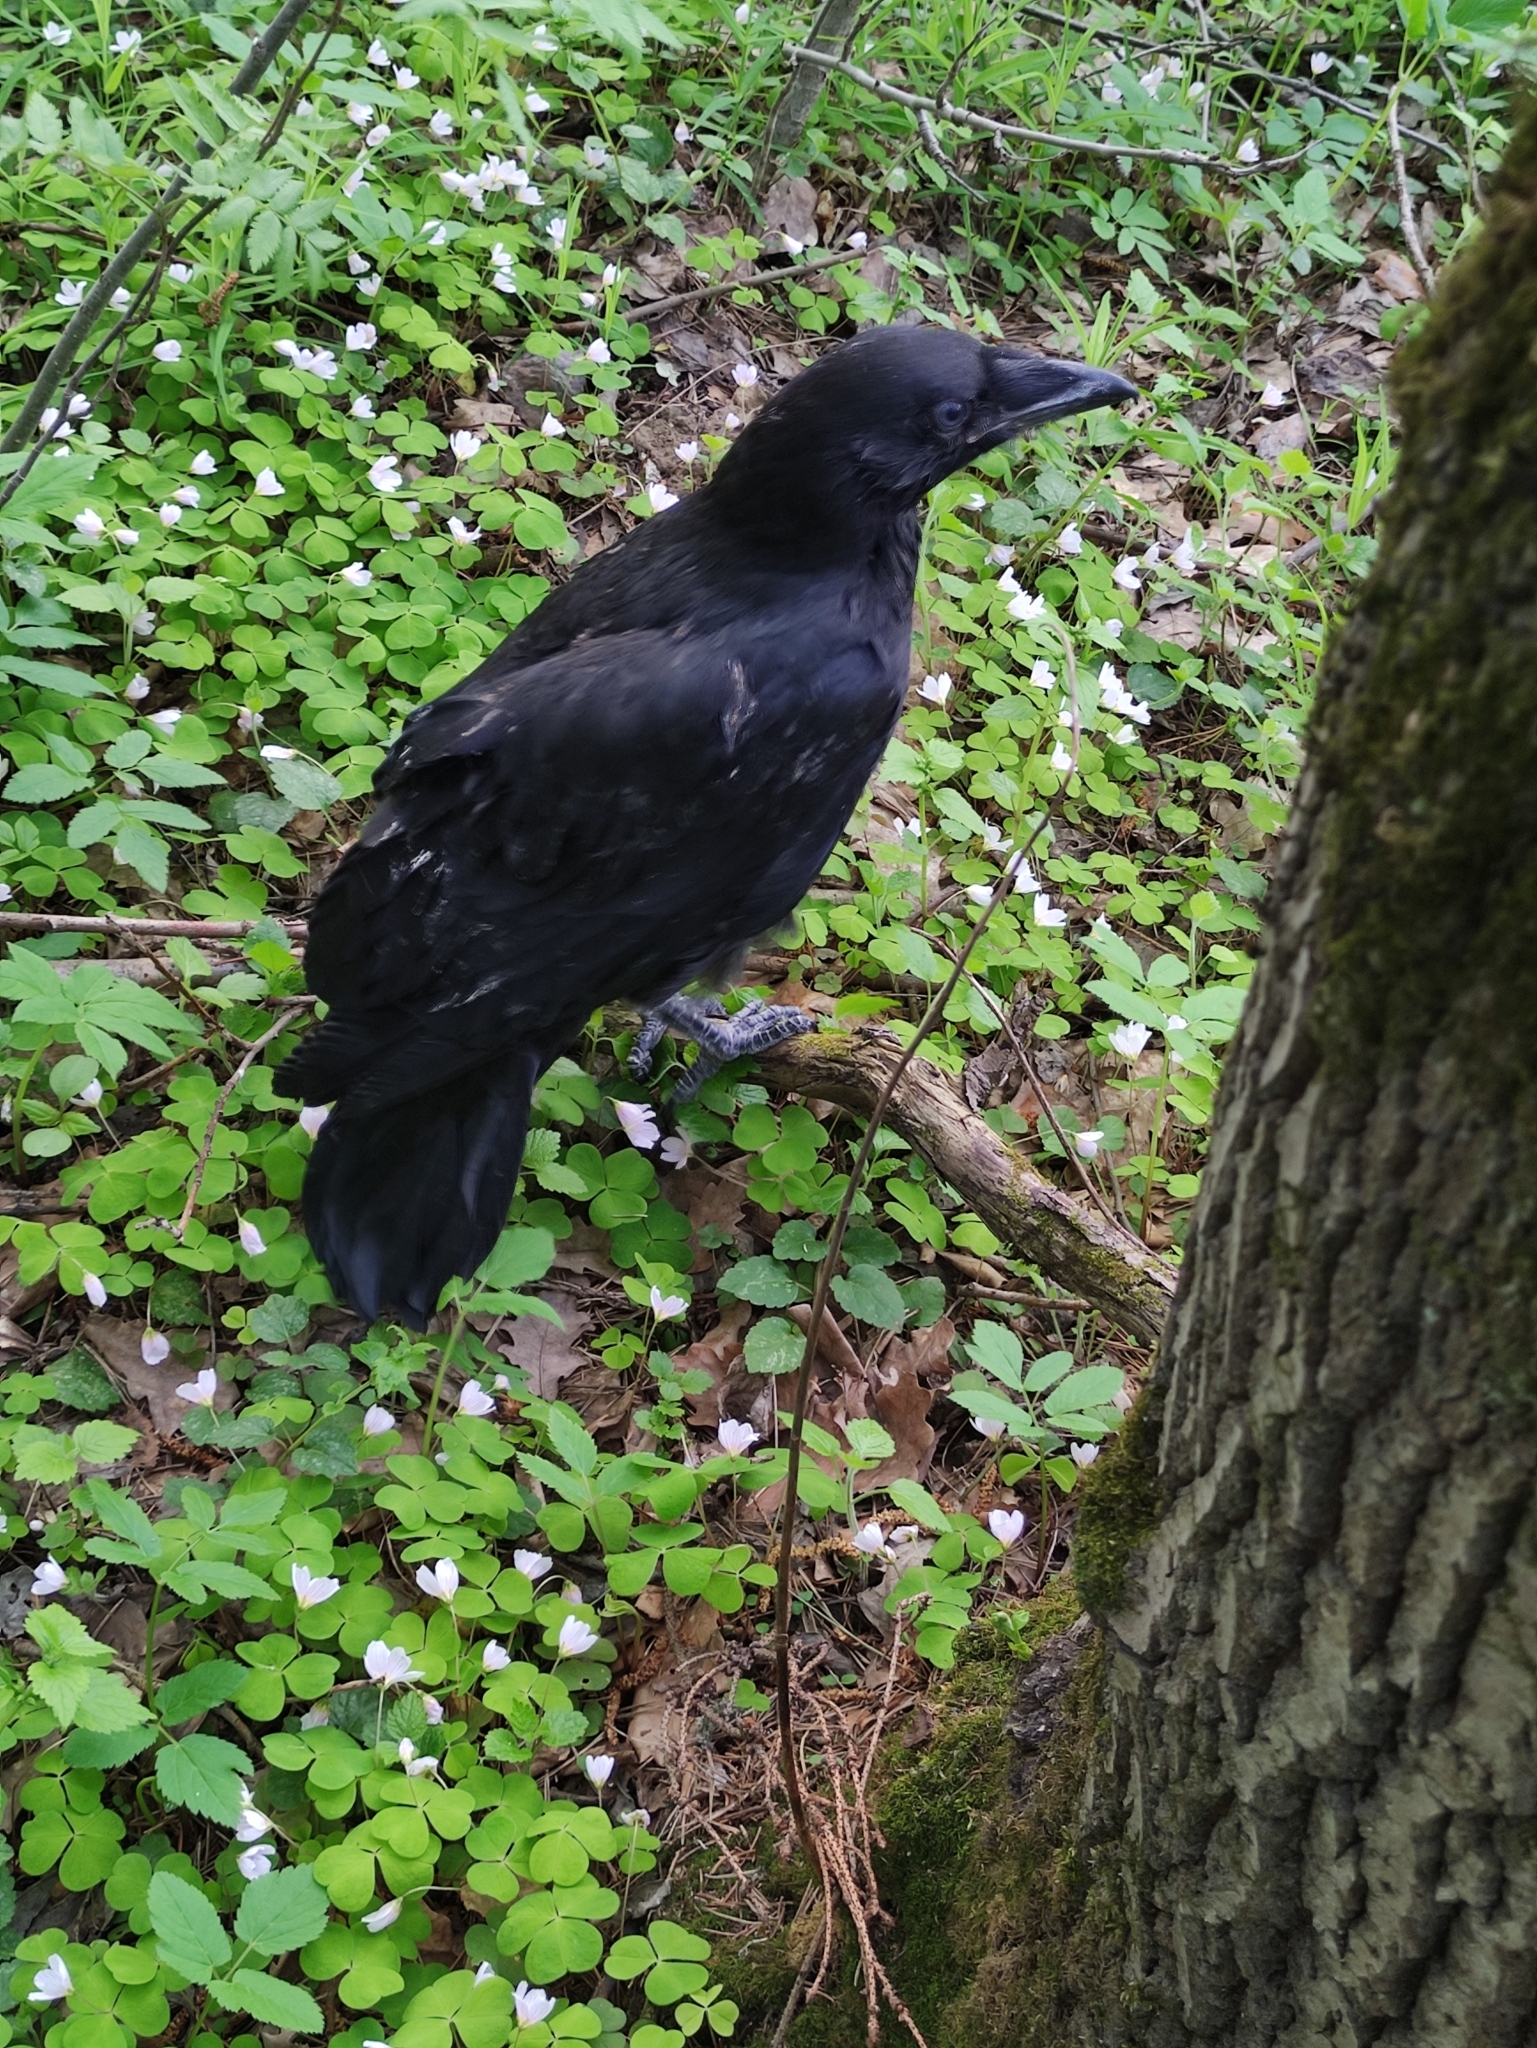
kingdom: Animalia
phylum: Chordata
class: Aves
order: Passeriformes
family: Corvidae
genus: Corvus
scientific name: Corvus corax
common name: Common raven
